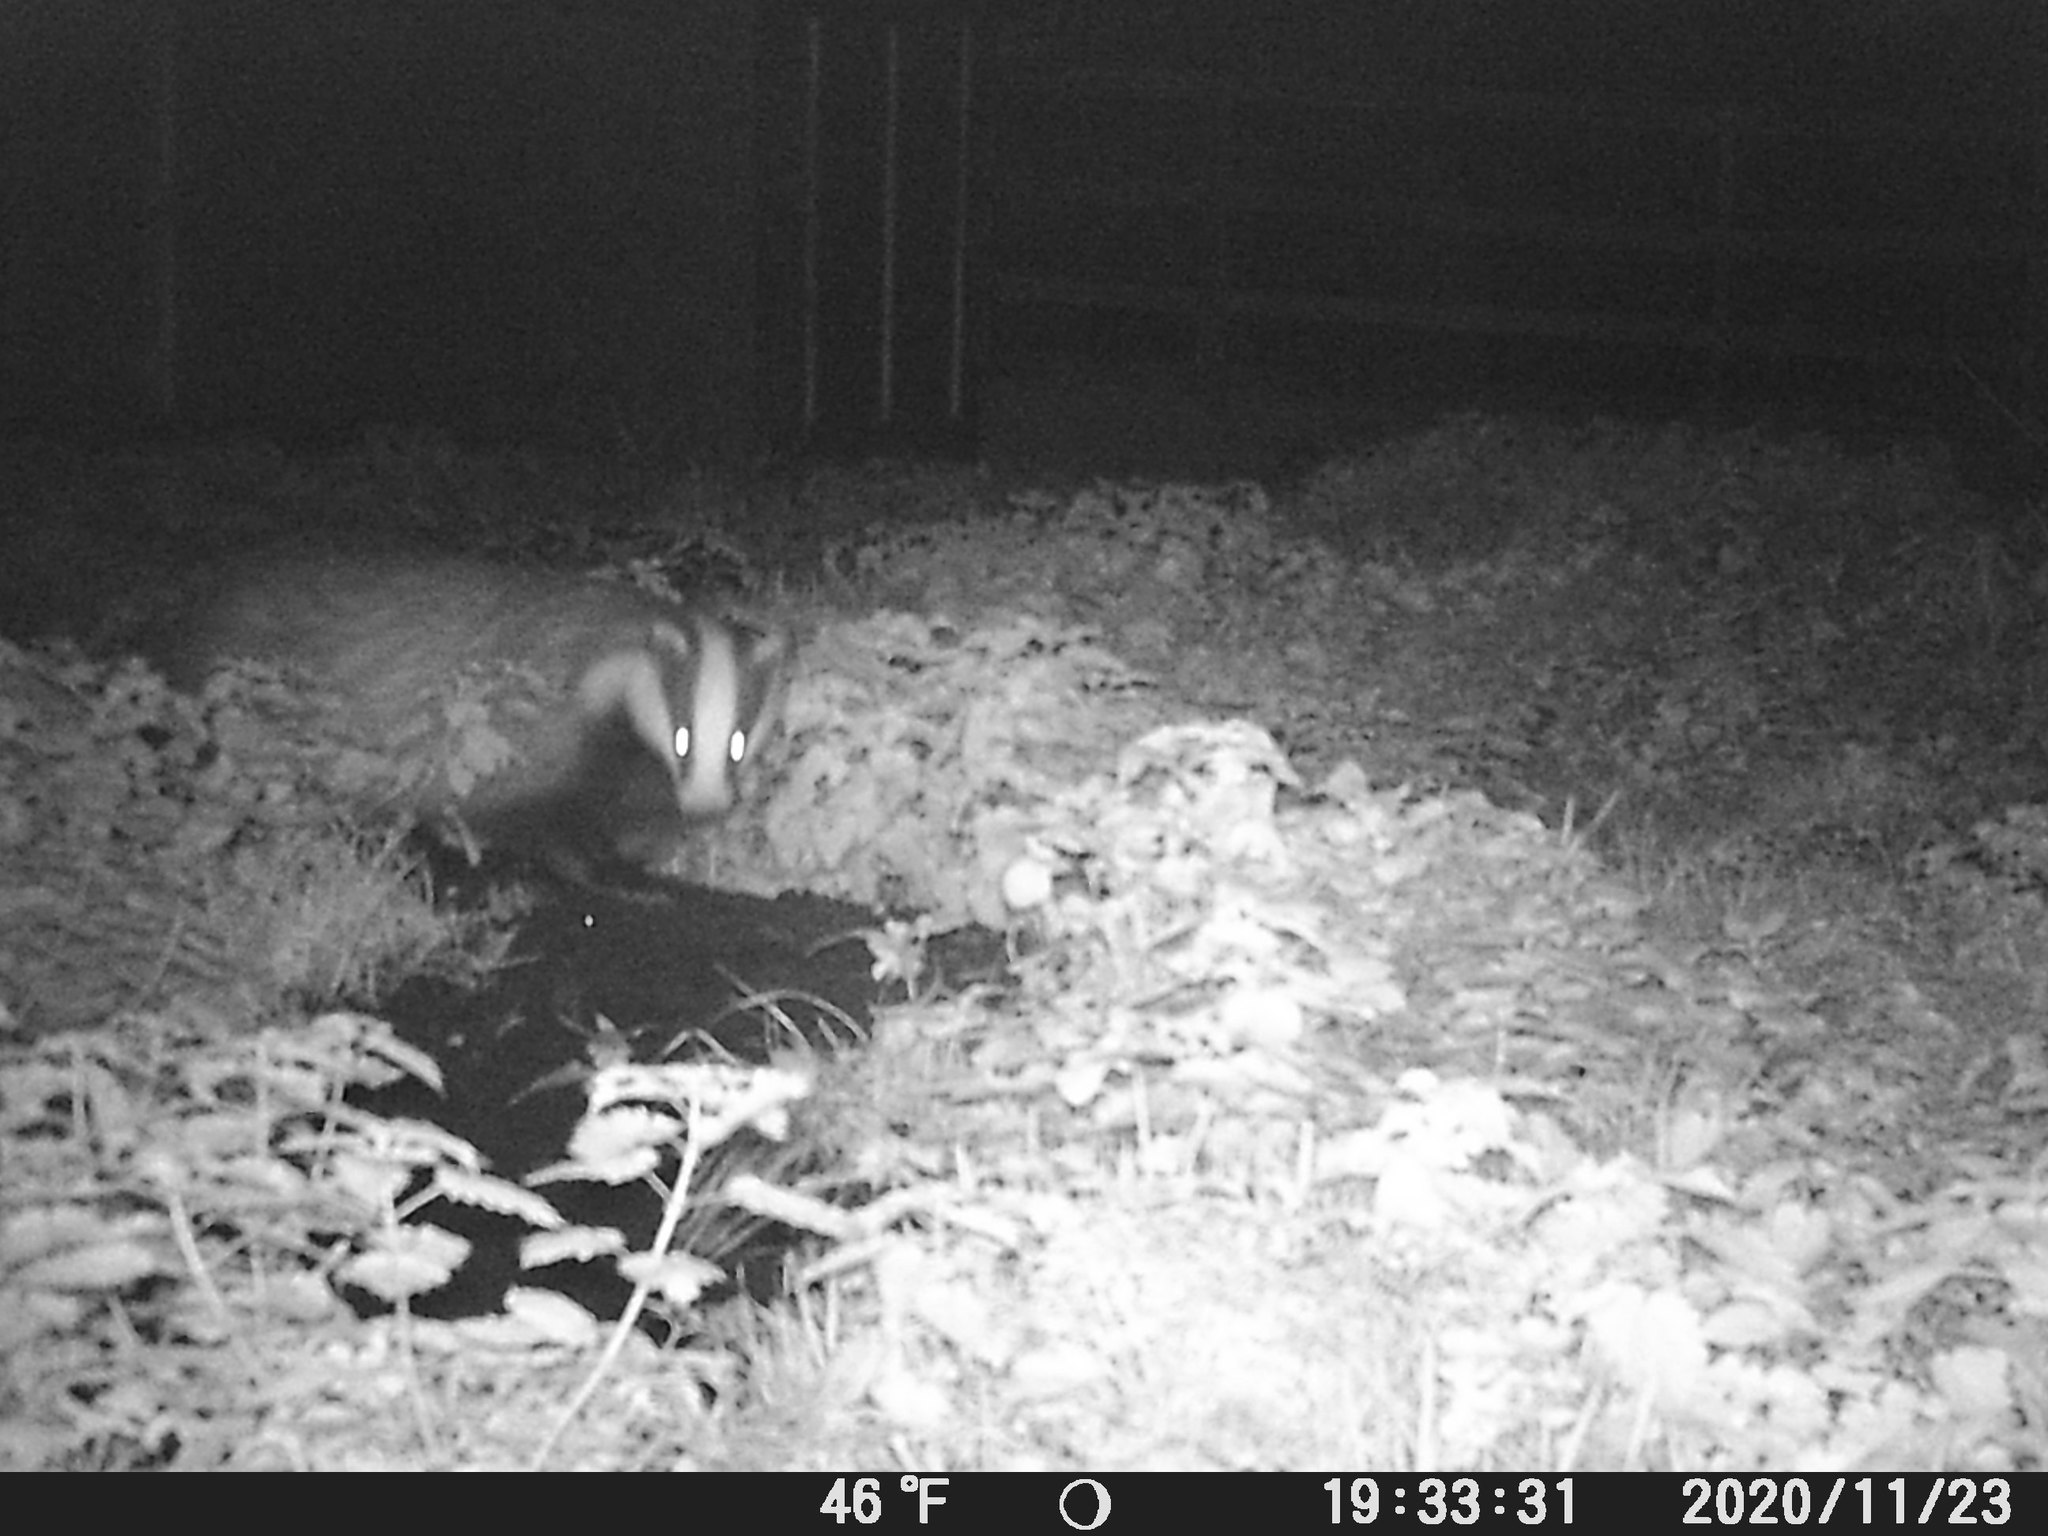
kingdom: Animalia
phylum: Chordata
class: Mammalia
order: Carnivora
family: Mustelidae
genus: Meles
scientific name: Meles meles
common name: Eurasian badger
